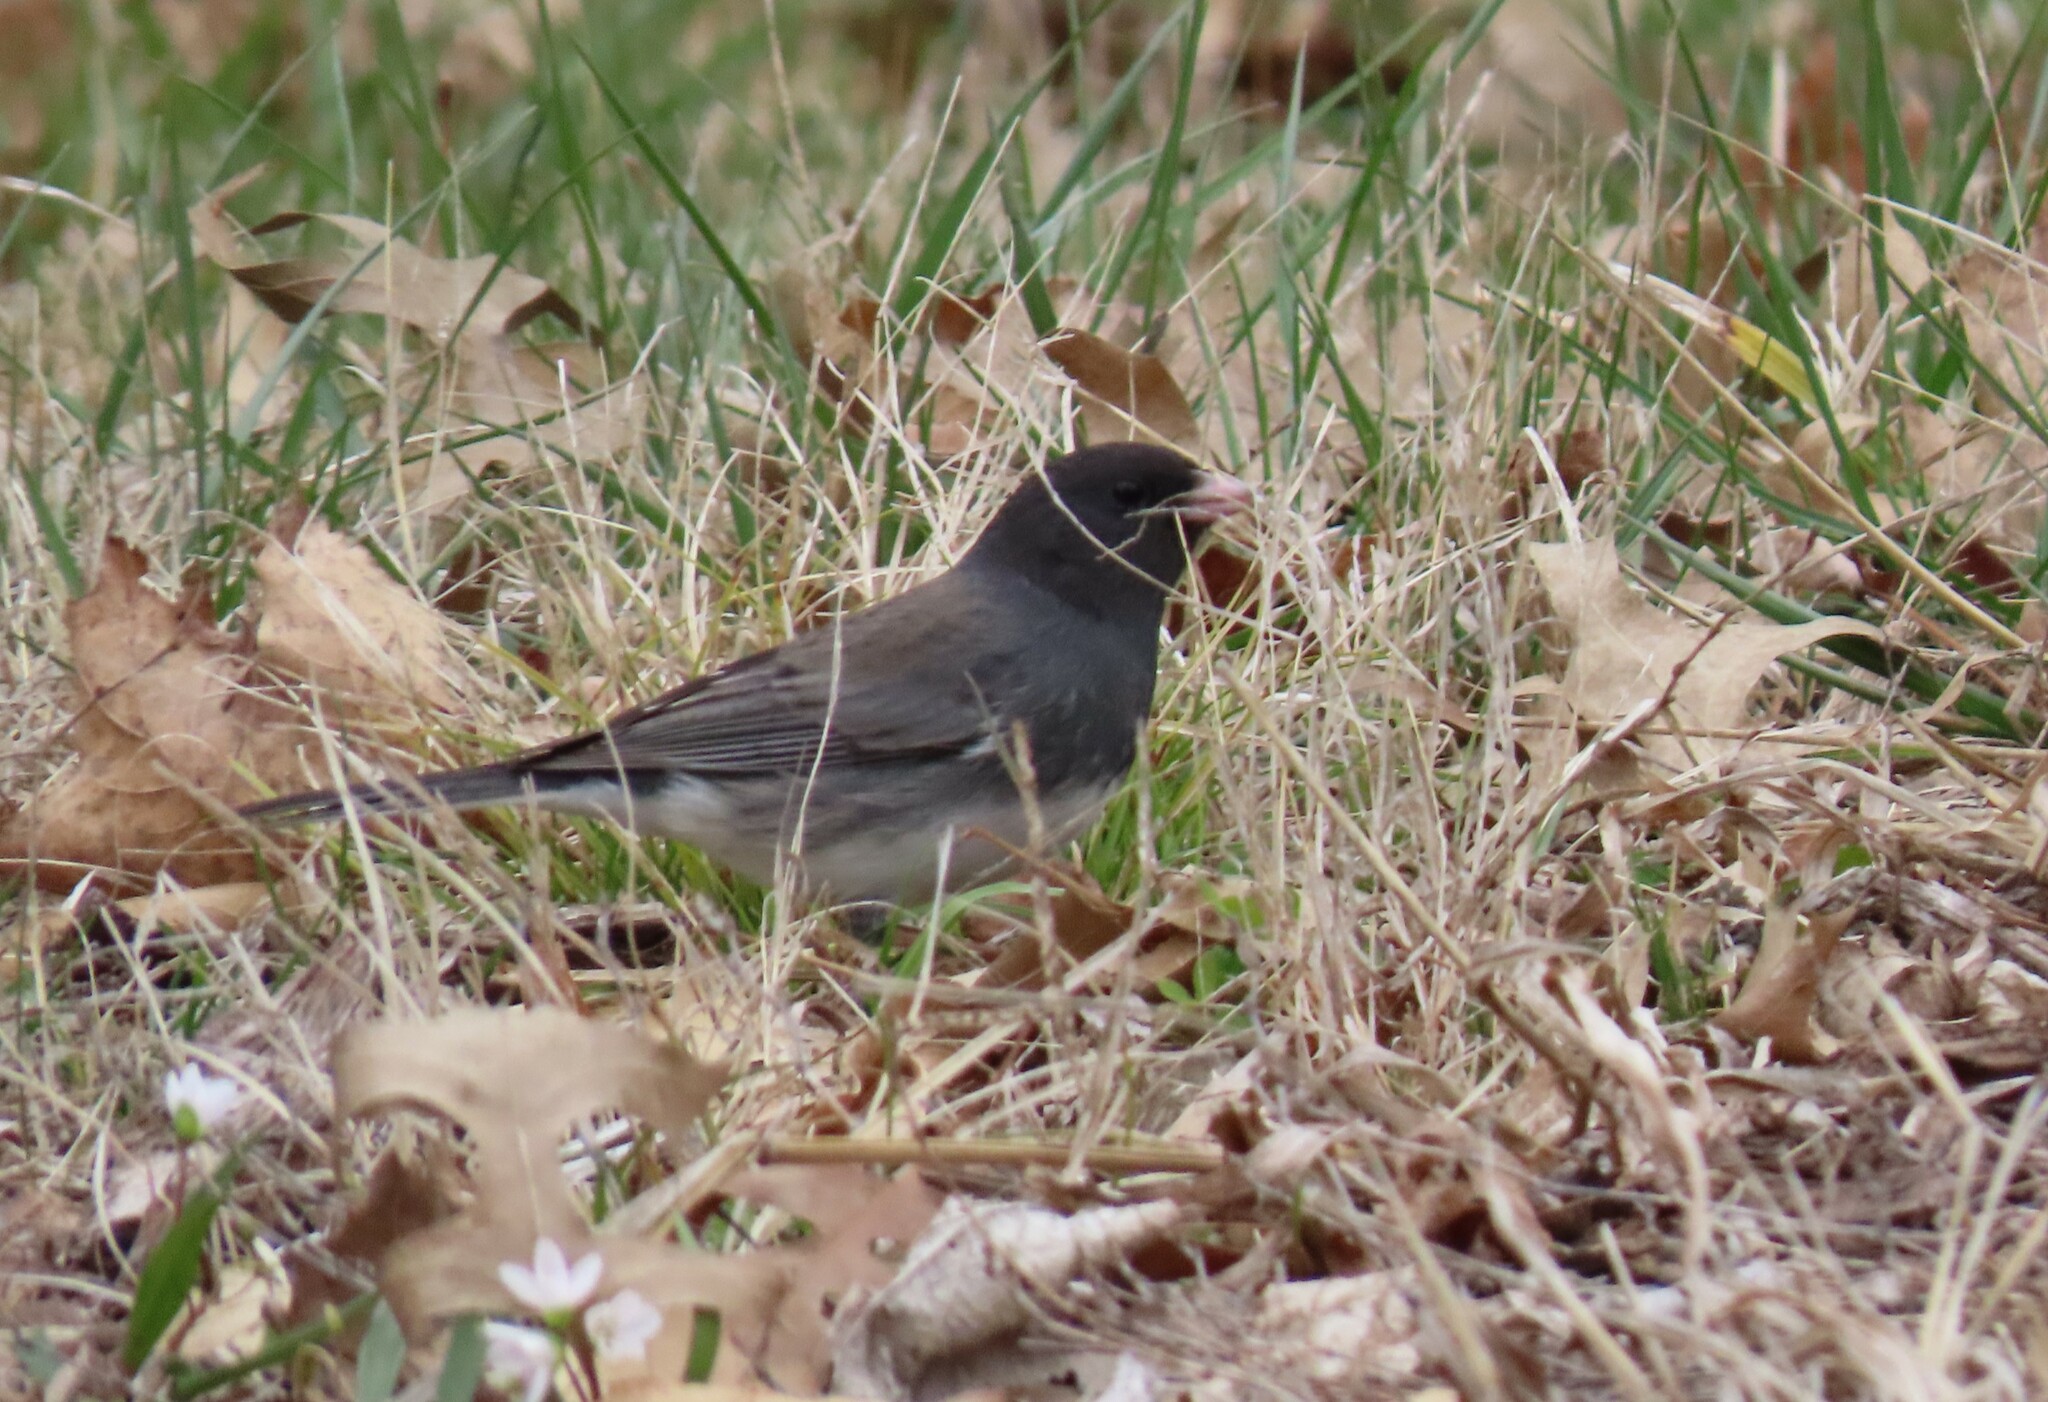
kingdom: Animalia
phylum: Chordata
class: Aves
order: Passeriformes
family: Passerellidae
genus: Junco
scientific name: Junco hyemalis
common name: Dark-eyed junco
